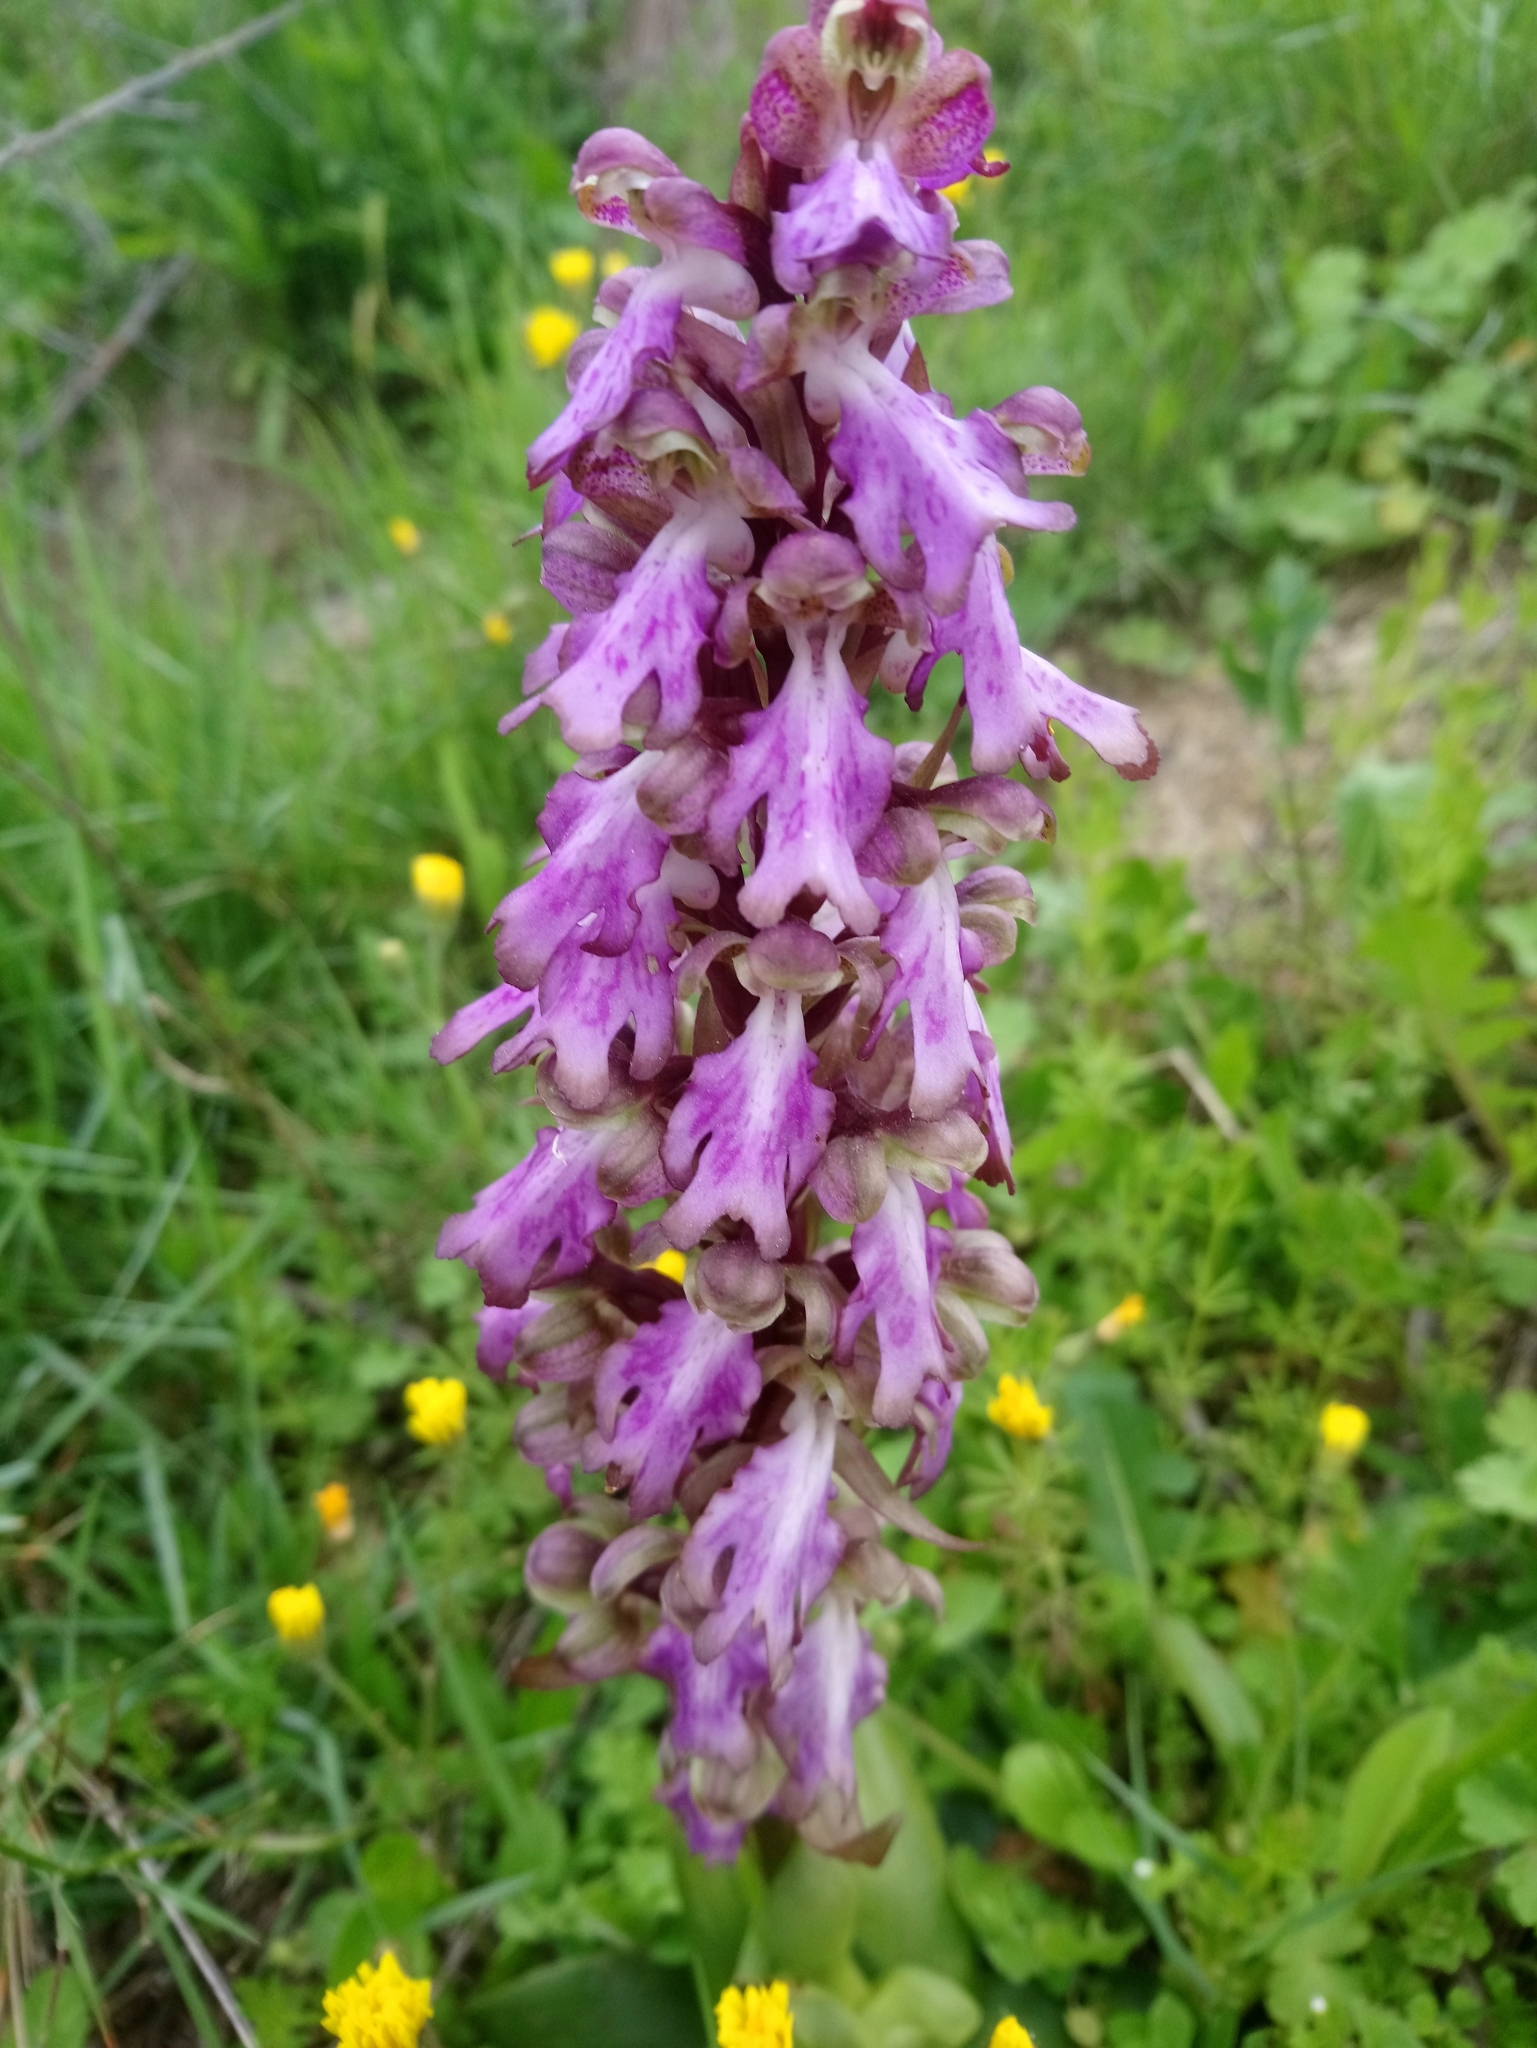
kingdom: Plantae
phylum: Tracheophyta
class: Liliopsida
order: Asparagales
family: Orchidaceae
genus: Himantoglossum
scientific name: Himantoglossum robertianum
